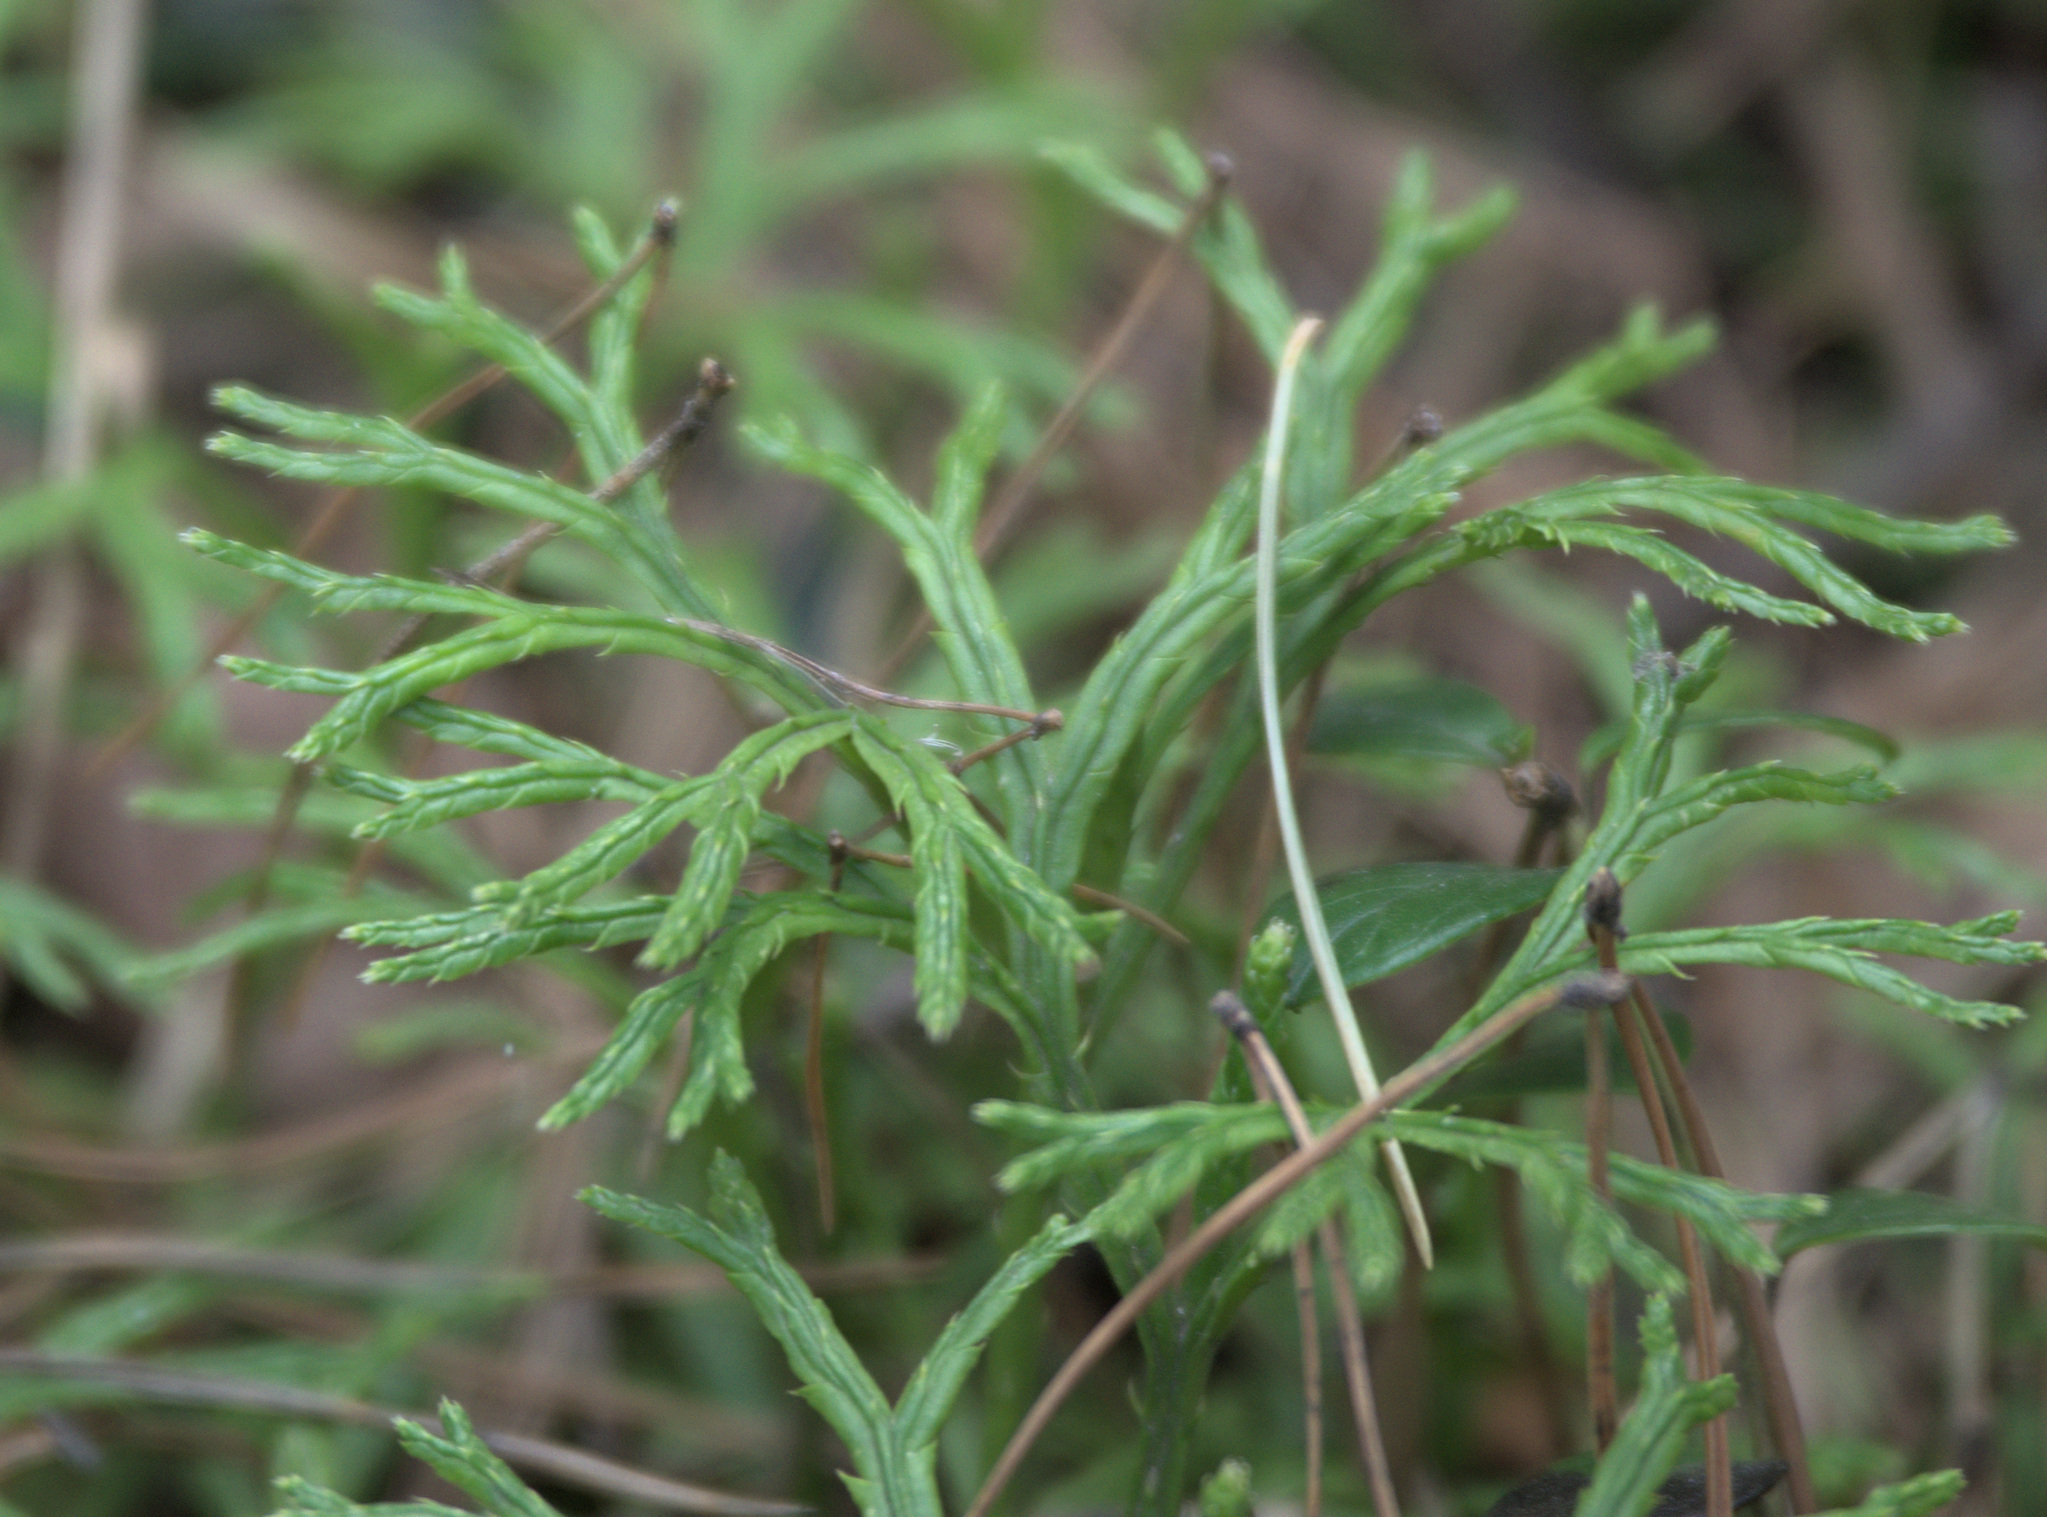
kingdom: Plantae
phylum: Tracheophyta
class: Lycopodiopsida
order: Lycopodiales
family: Lycopodiaceae
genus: Diphasiastrum
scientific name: Diphasiastrum complanatum
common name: Northern running-pine
